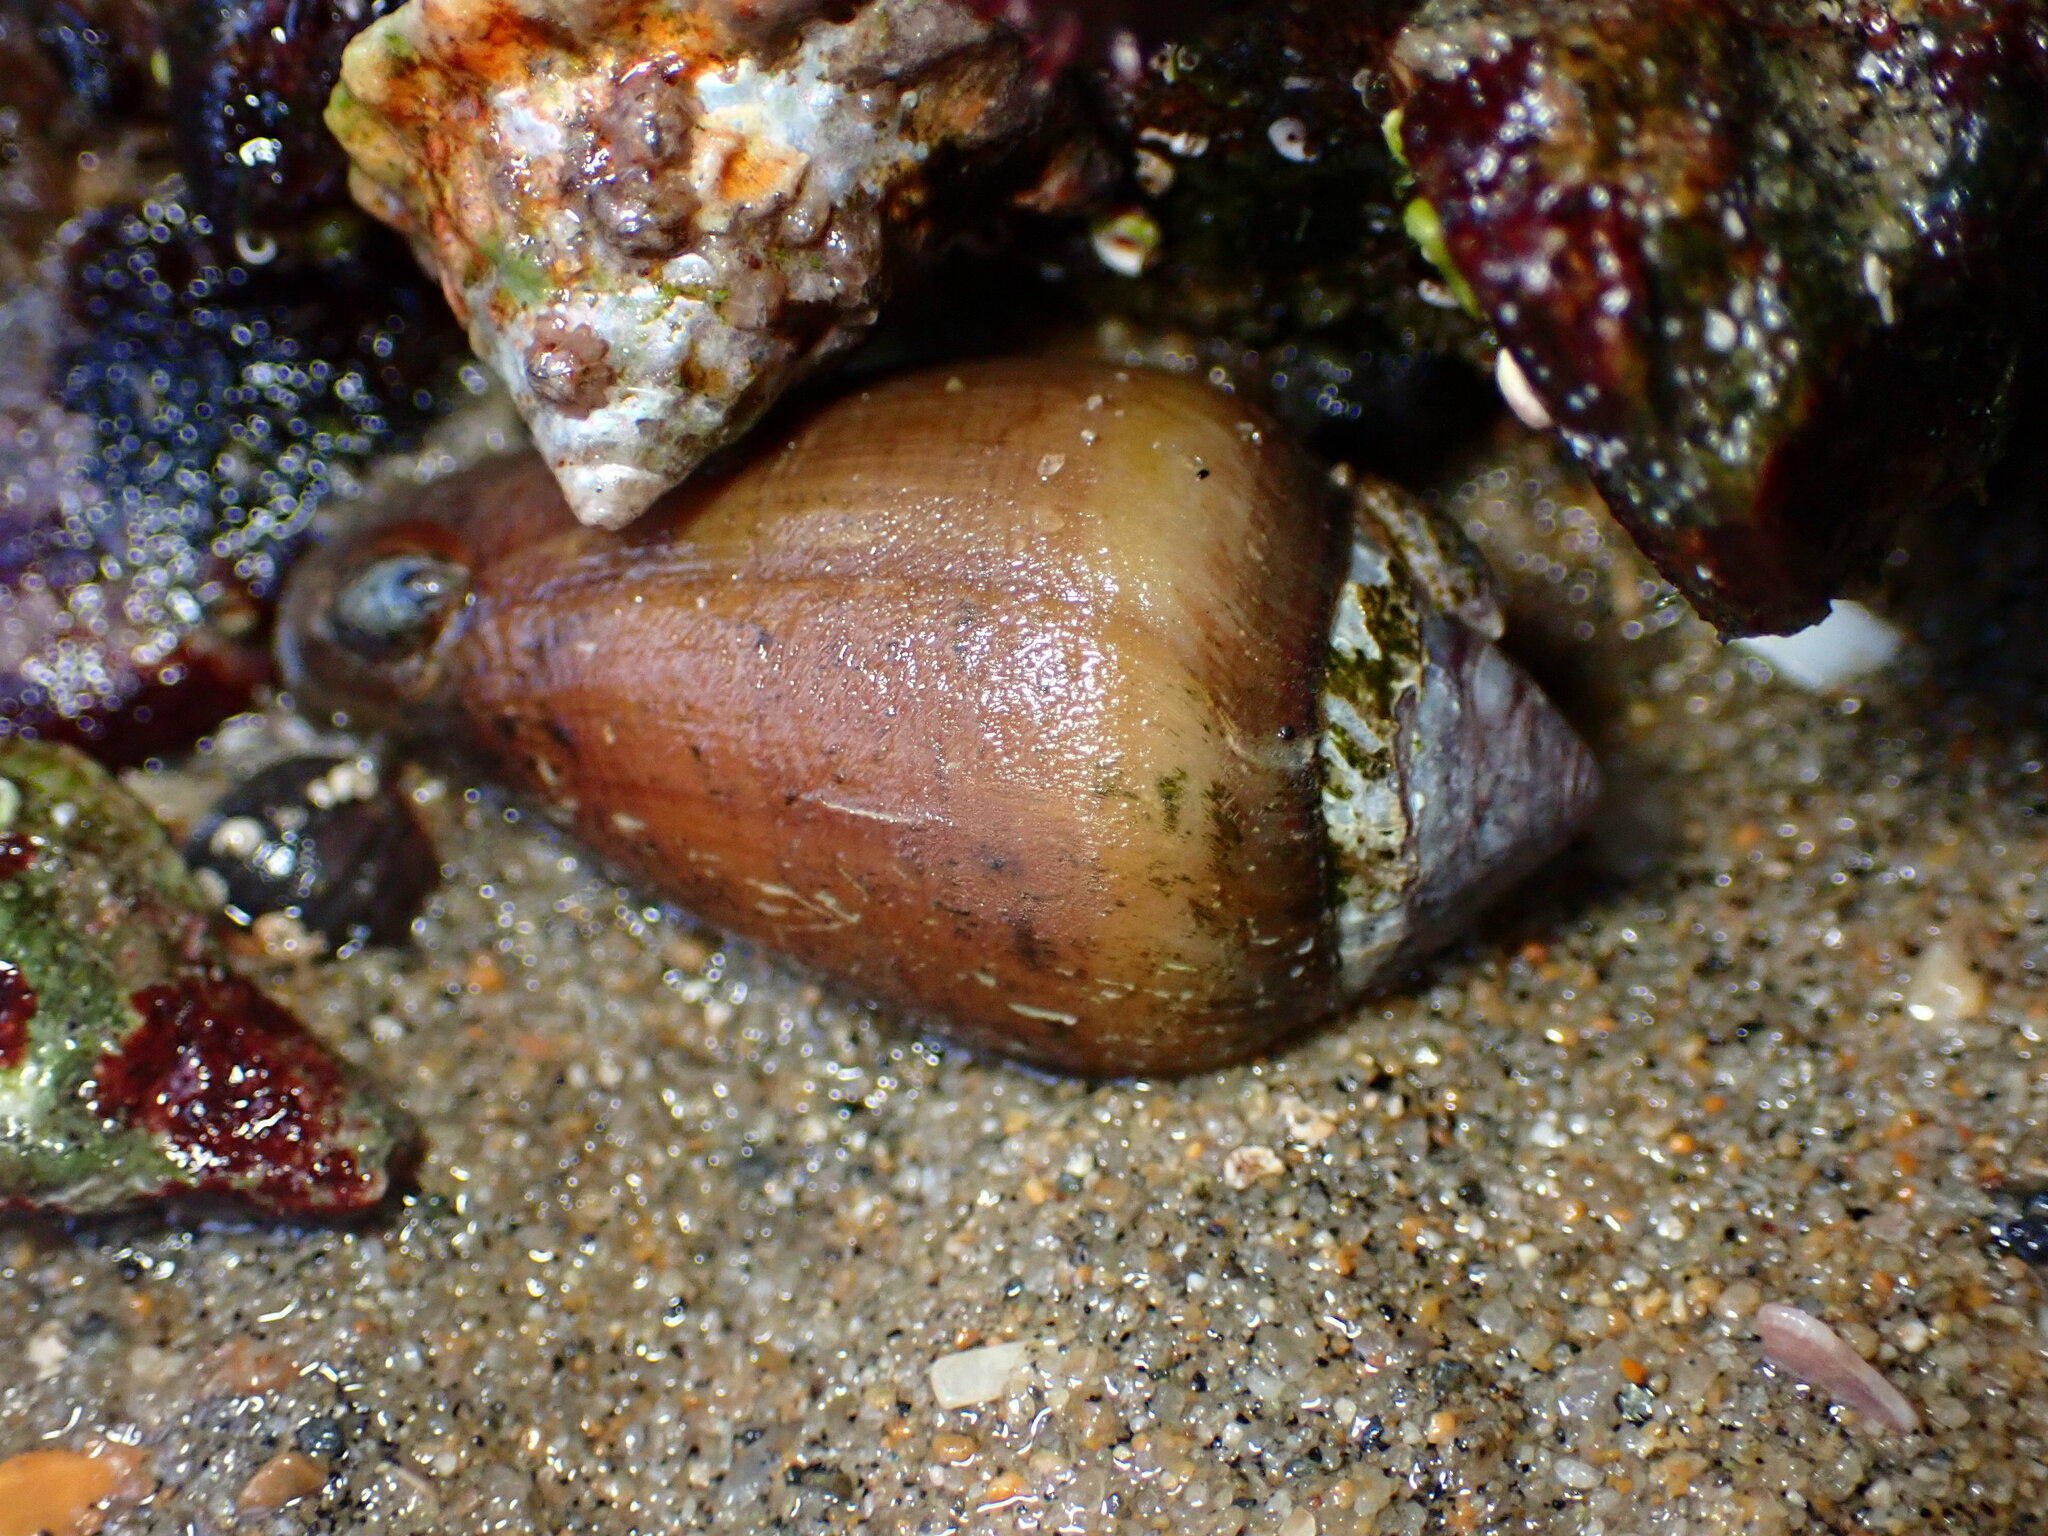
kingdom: Animalia
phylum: Mollusca
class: Gastropoda
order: Neogastropoda
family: Conidae
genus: Californiconus
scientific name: Californiconus californicus
